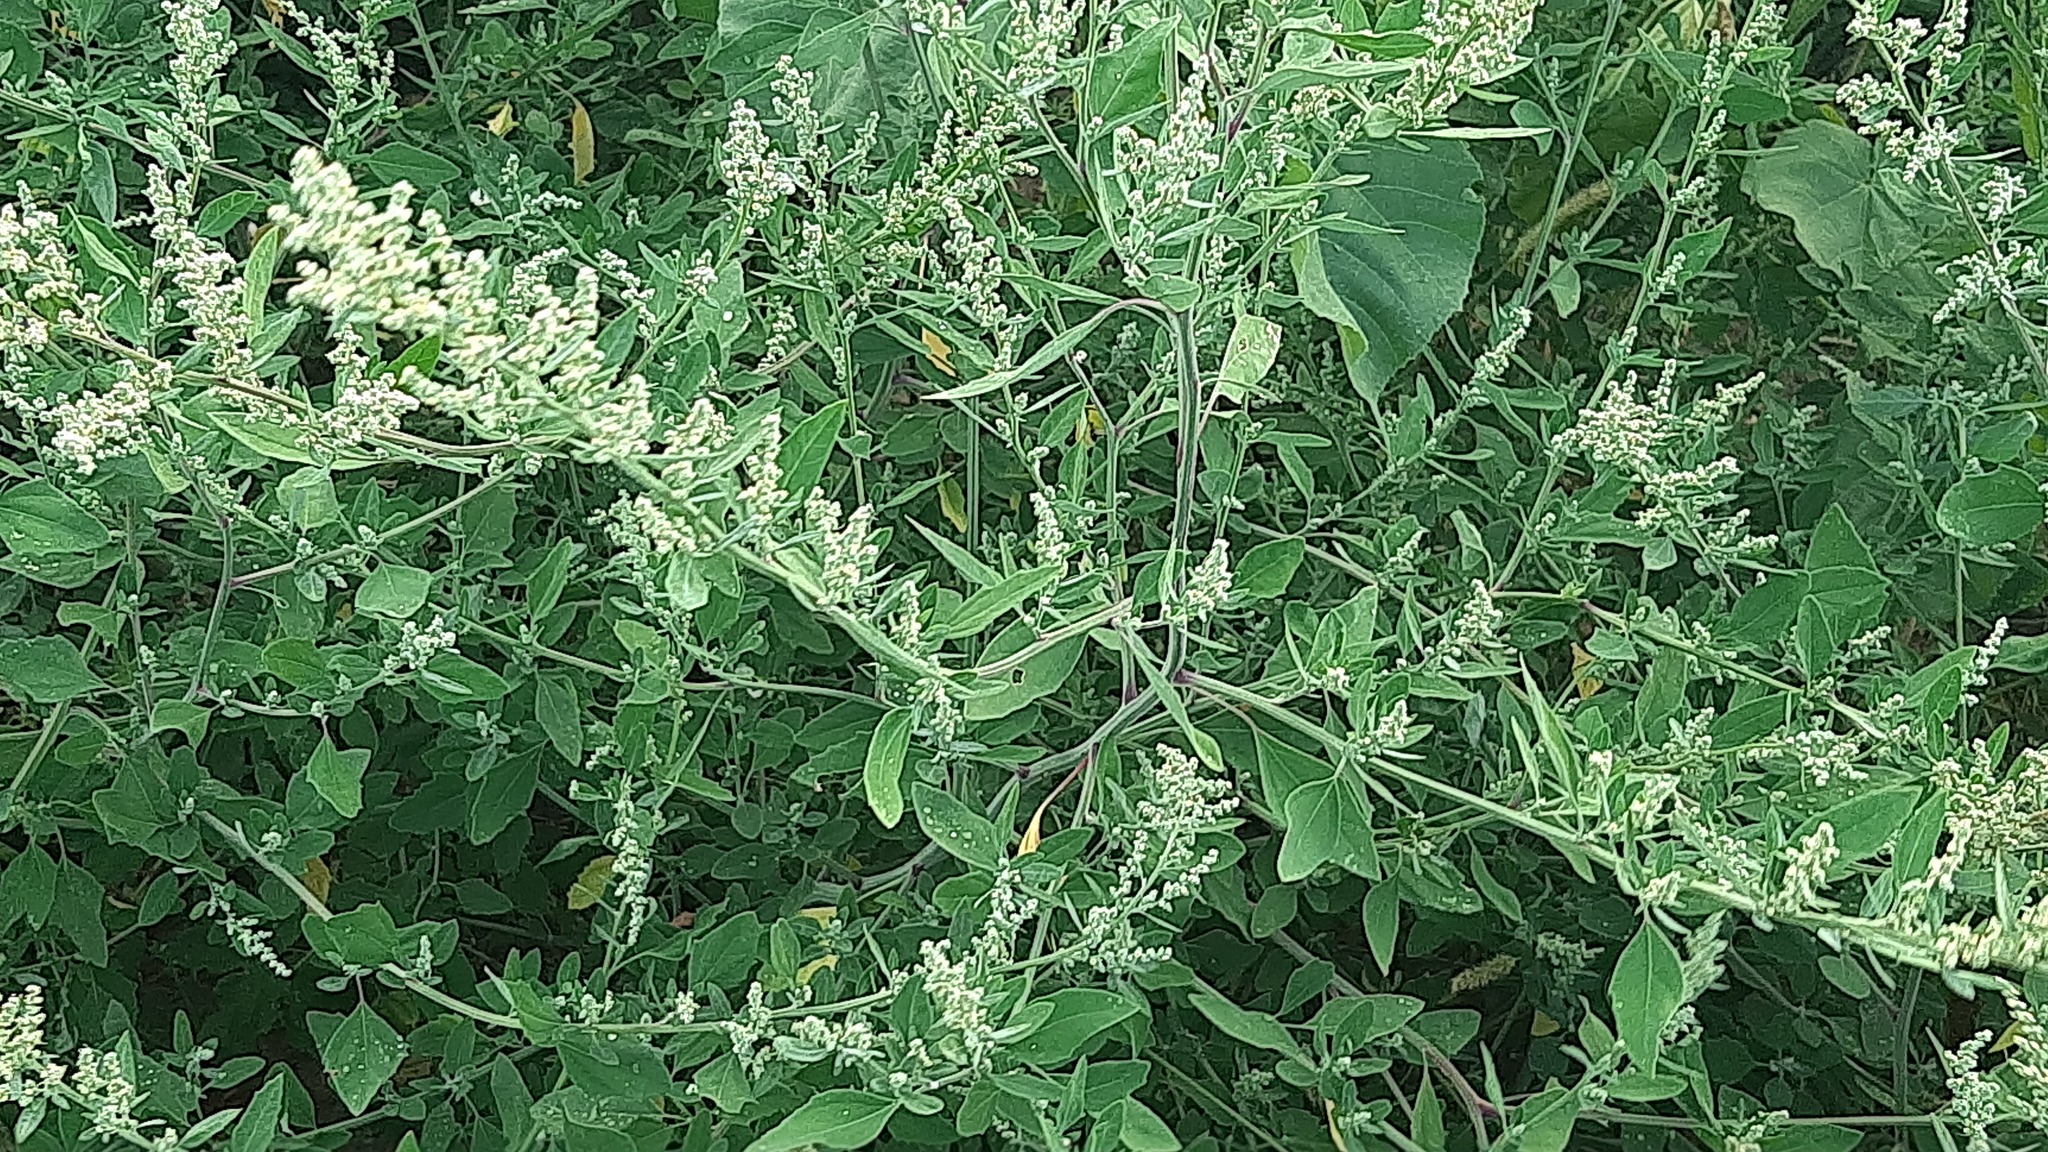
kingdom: Plantae
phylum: Tracheophyta
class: Magnoliopsida
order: Caryophyllales
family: Amaranthaceae
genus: Chenopodium
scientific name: Chenopodium album
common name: Fat-hen
